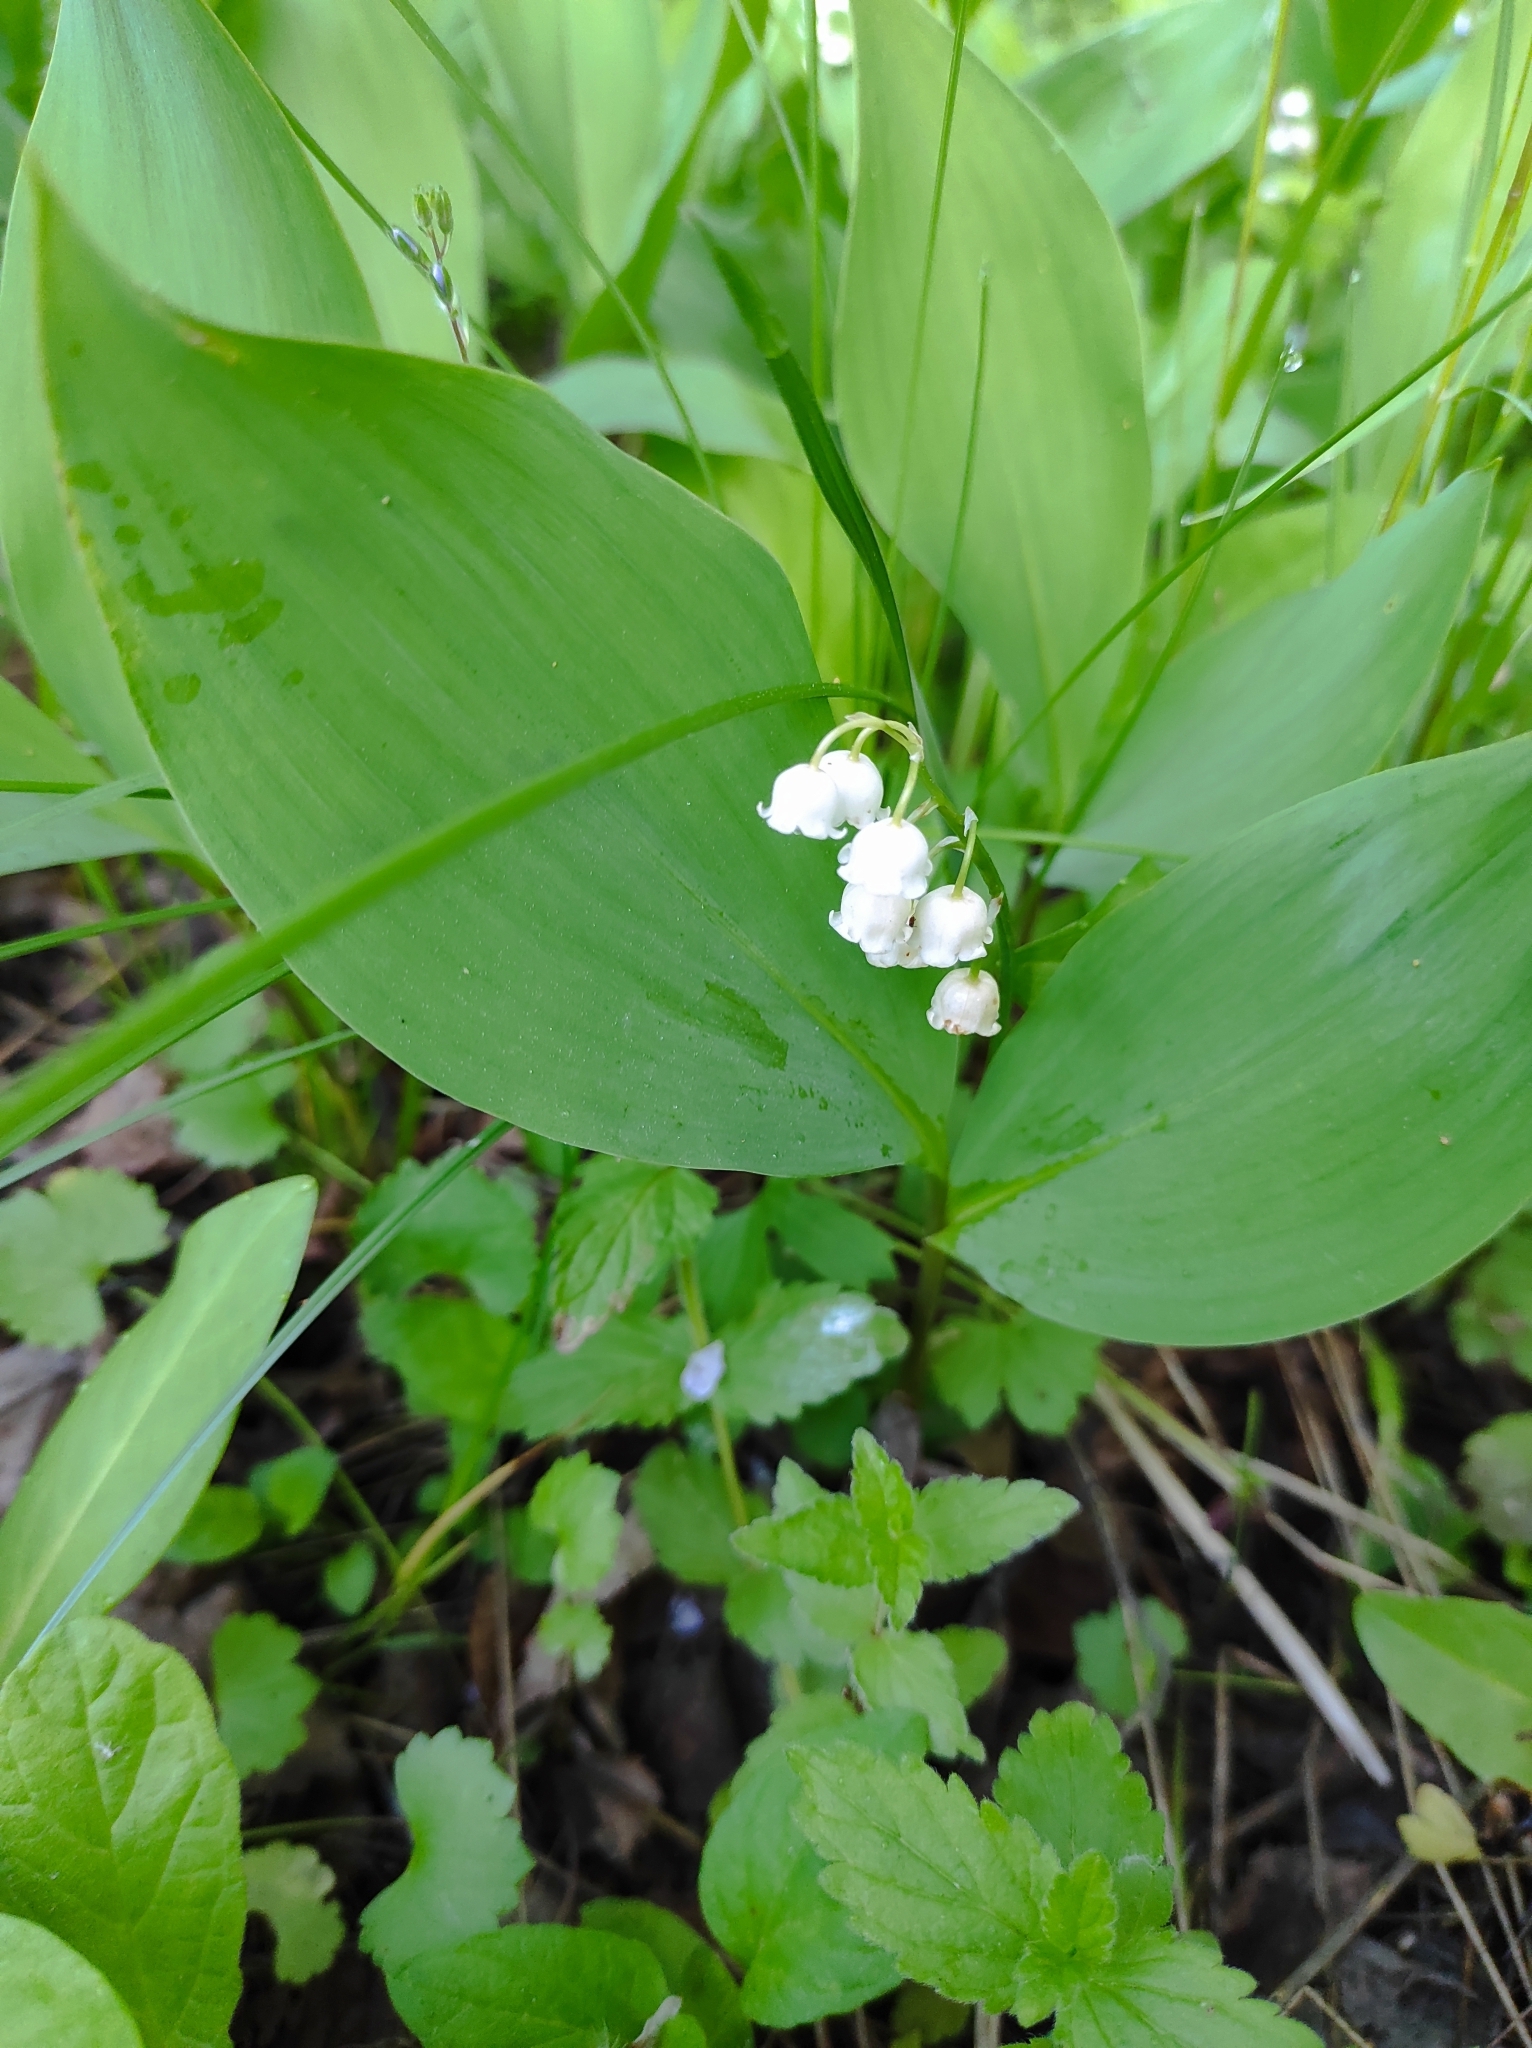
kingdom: Plantae
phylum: Tracheophyta
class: Liliopsida
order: Asparagales
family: Asparagaceae
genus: Convallaria
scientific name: Convallaria majalis
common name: Lily-of-the-valley
